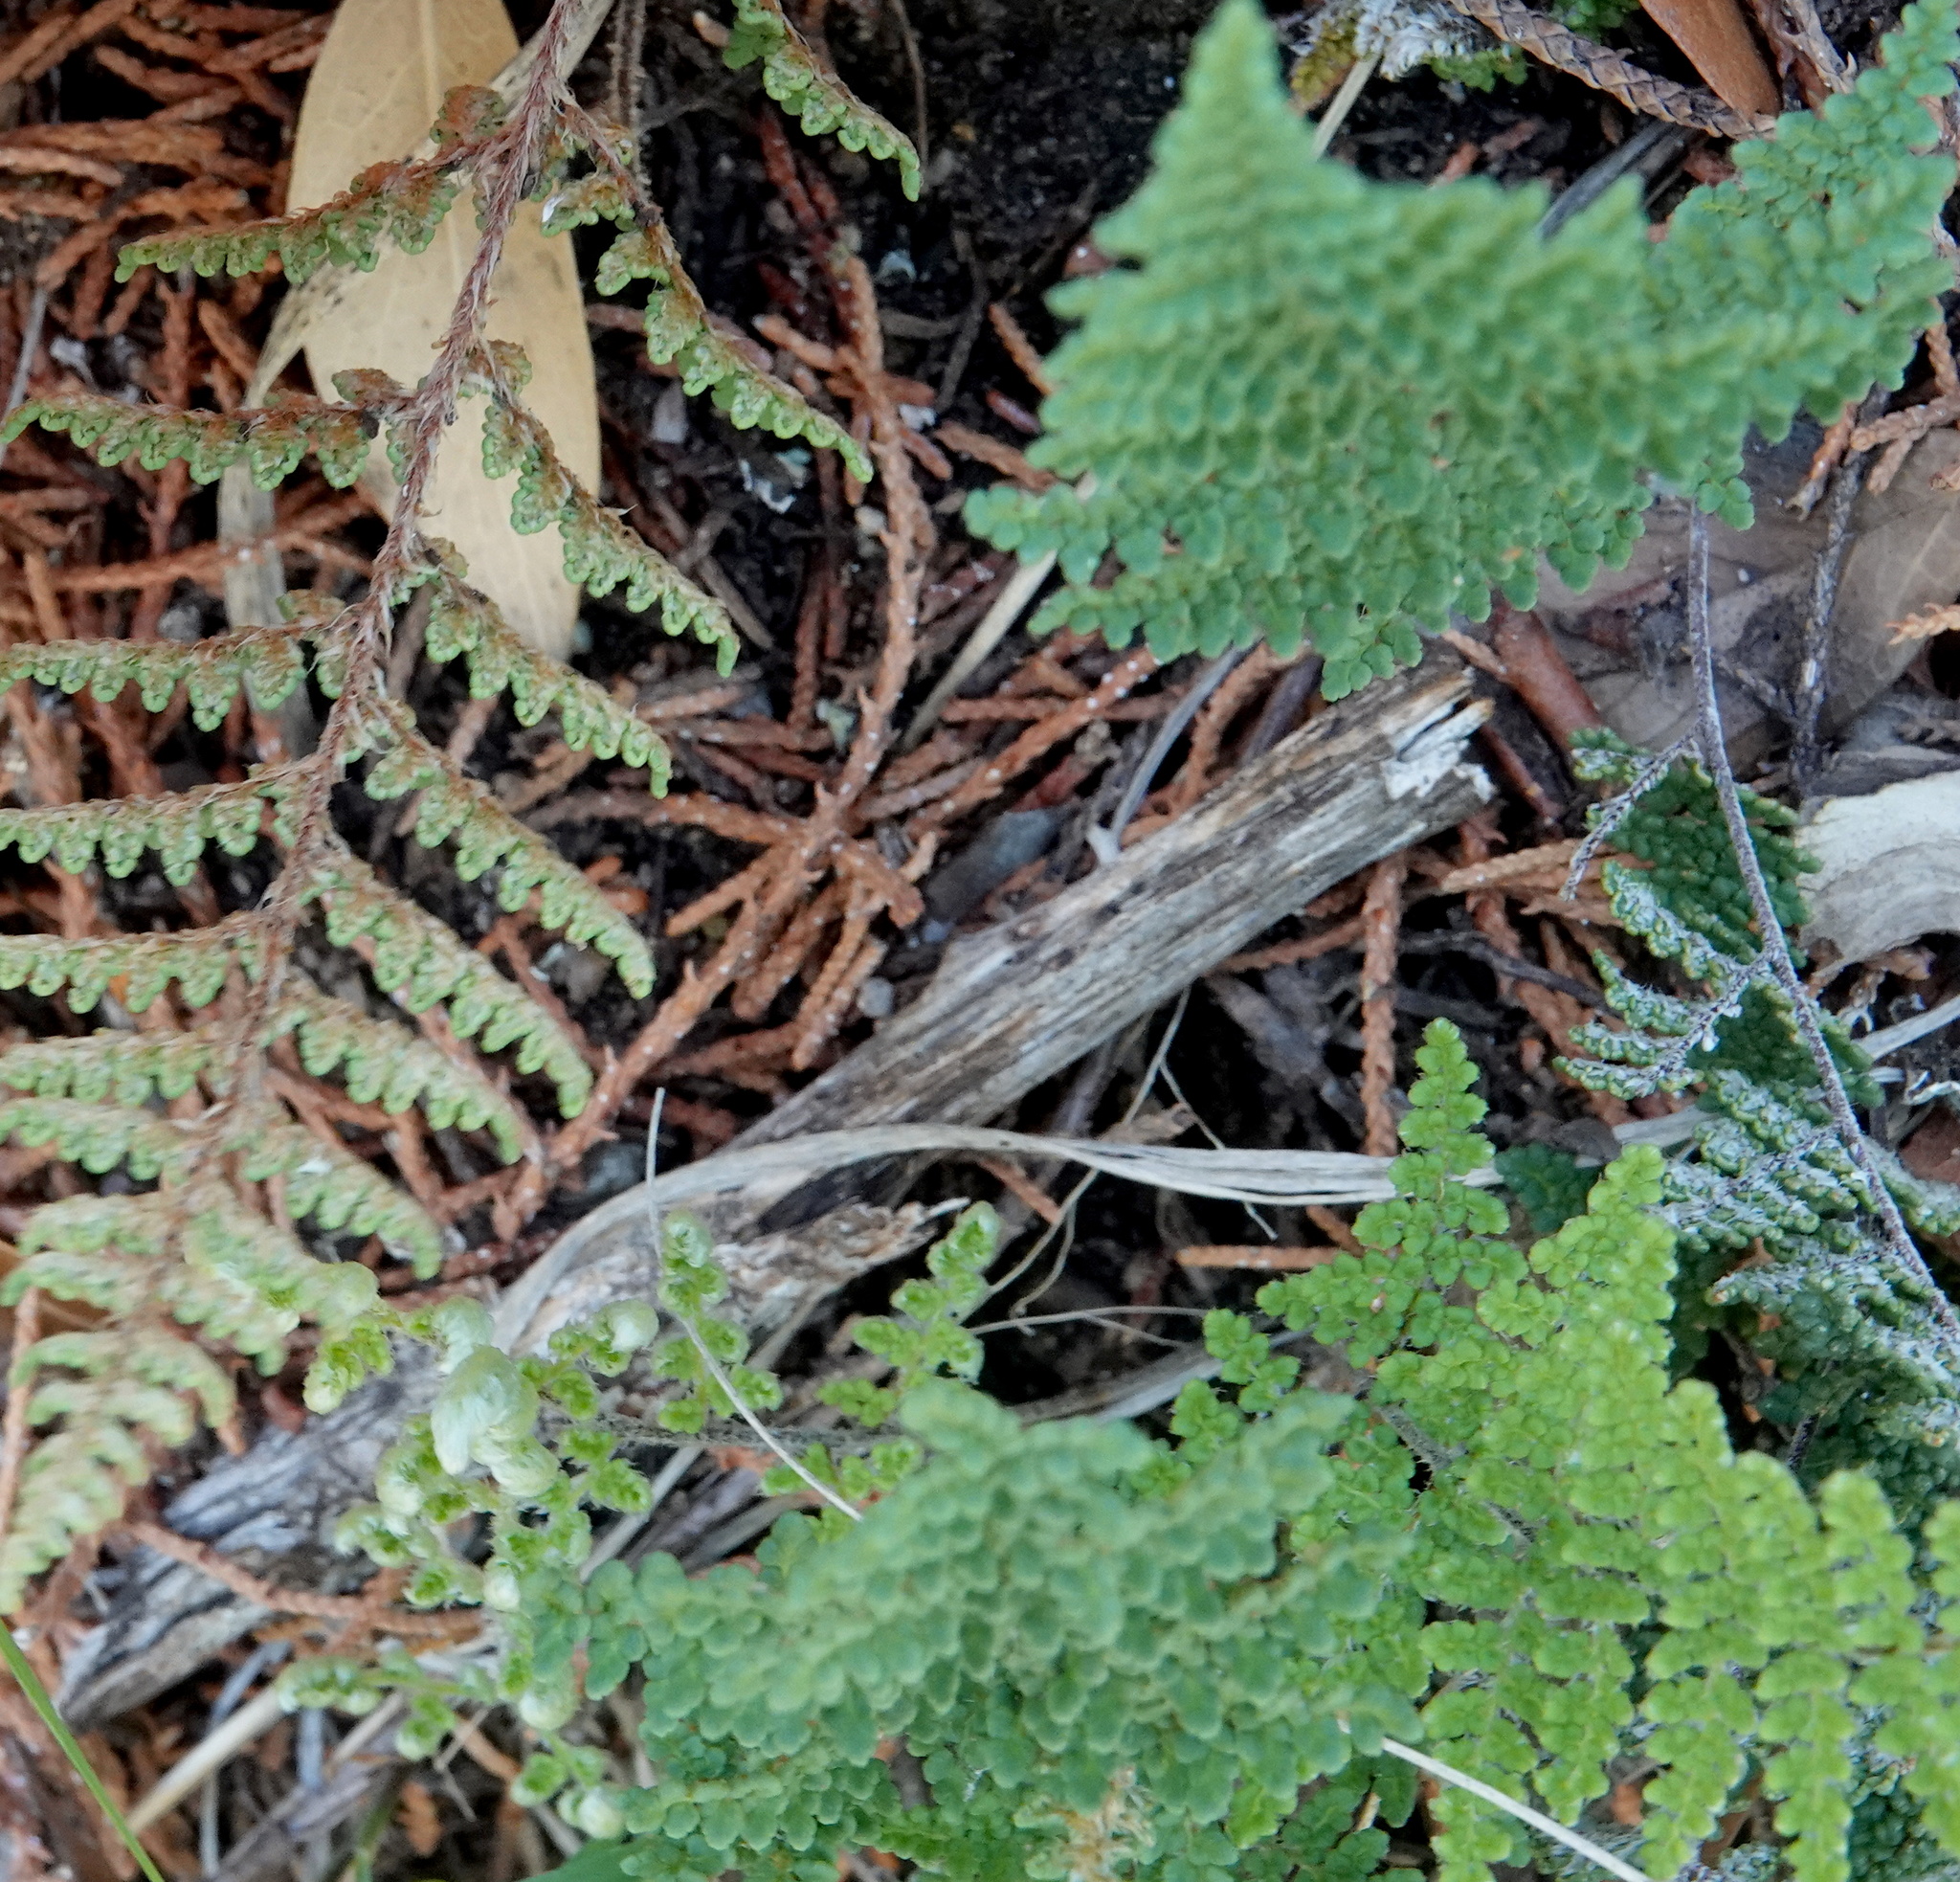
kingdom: Plantae
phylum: Tracheophyta
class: Polypodiopsida
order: Polypodiales
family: Pteridaceae
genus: Myriopteris
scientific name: Myriopteris fendleri
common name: Fendler's lip fern
